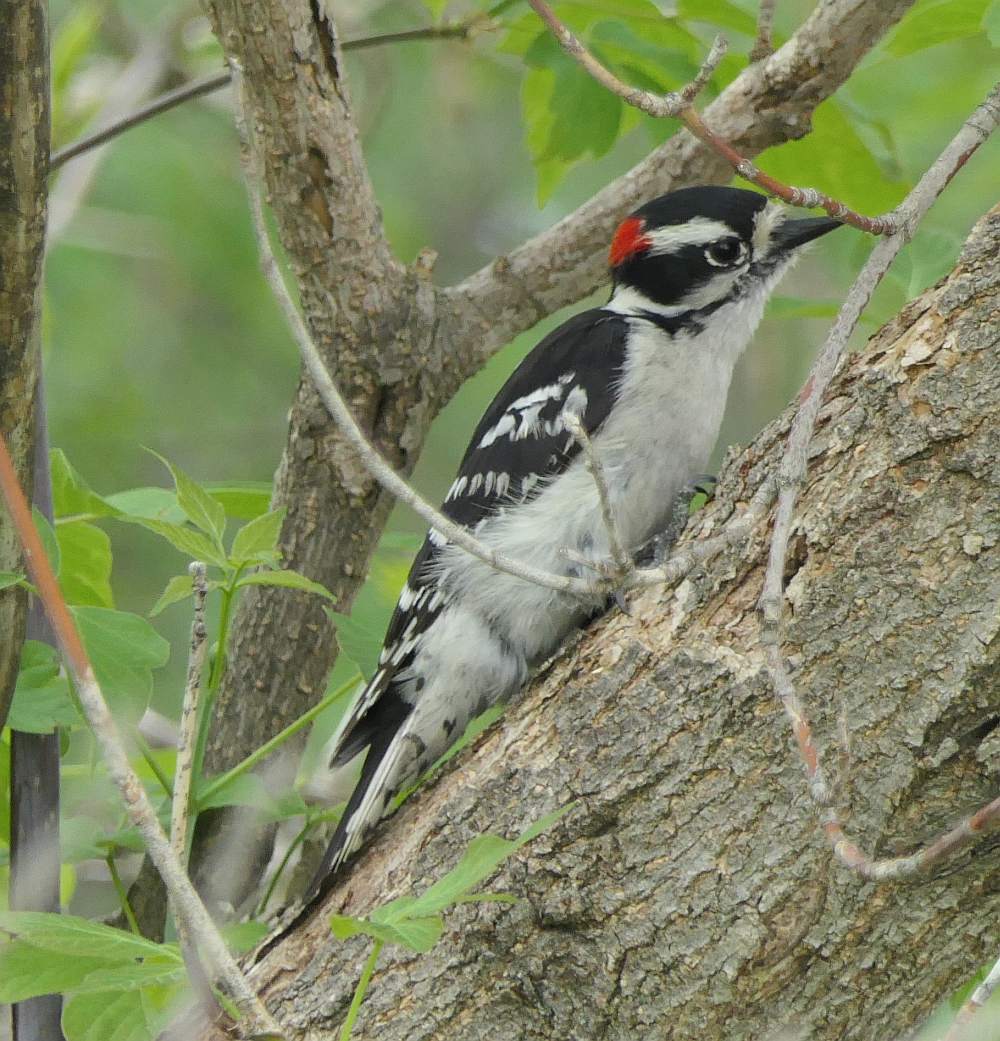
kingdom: Animalia
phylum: Chordata
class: Aves
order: Piciformes
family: Picidae
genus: Dryobates
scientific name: Dryobates pubescens
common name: Downy woodpecker
